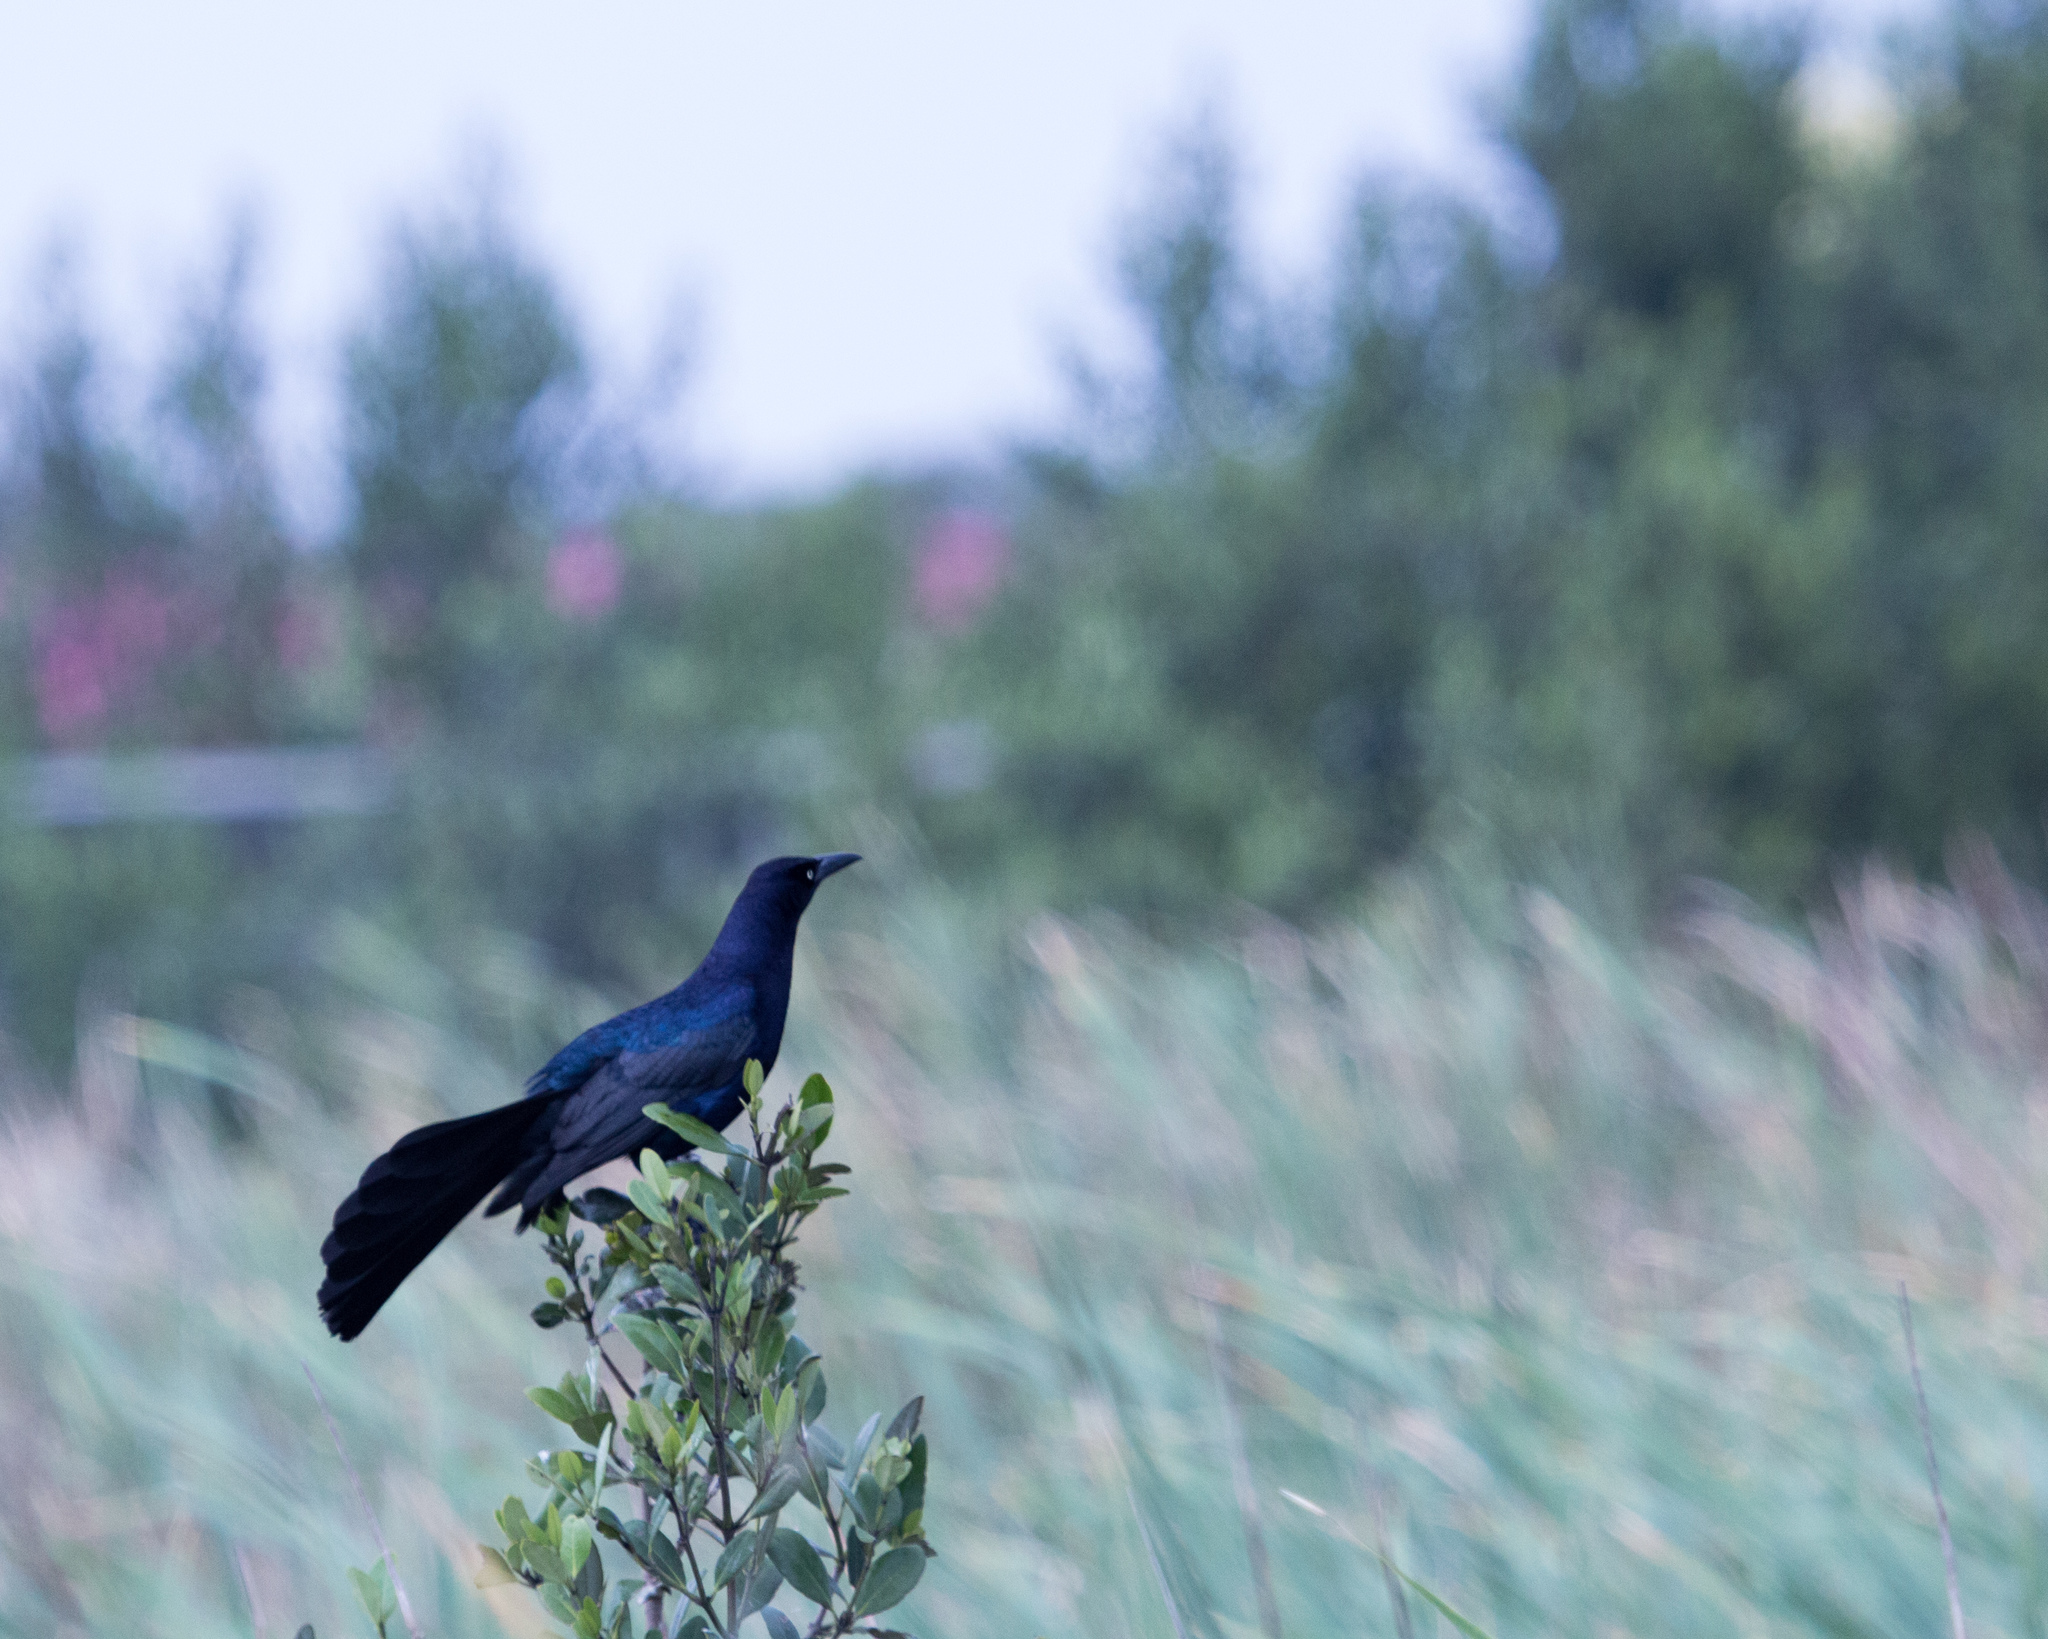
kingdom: Animalia
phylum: Chordata
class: Aves
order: Passeriformes
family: Icteridae
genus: Quiscalus
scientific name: Quiscalus mexicanus
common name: Great-tailed grackle
